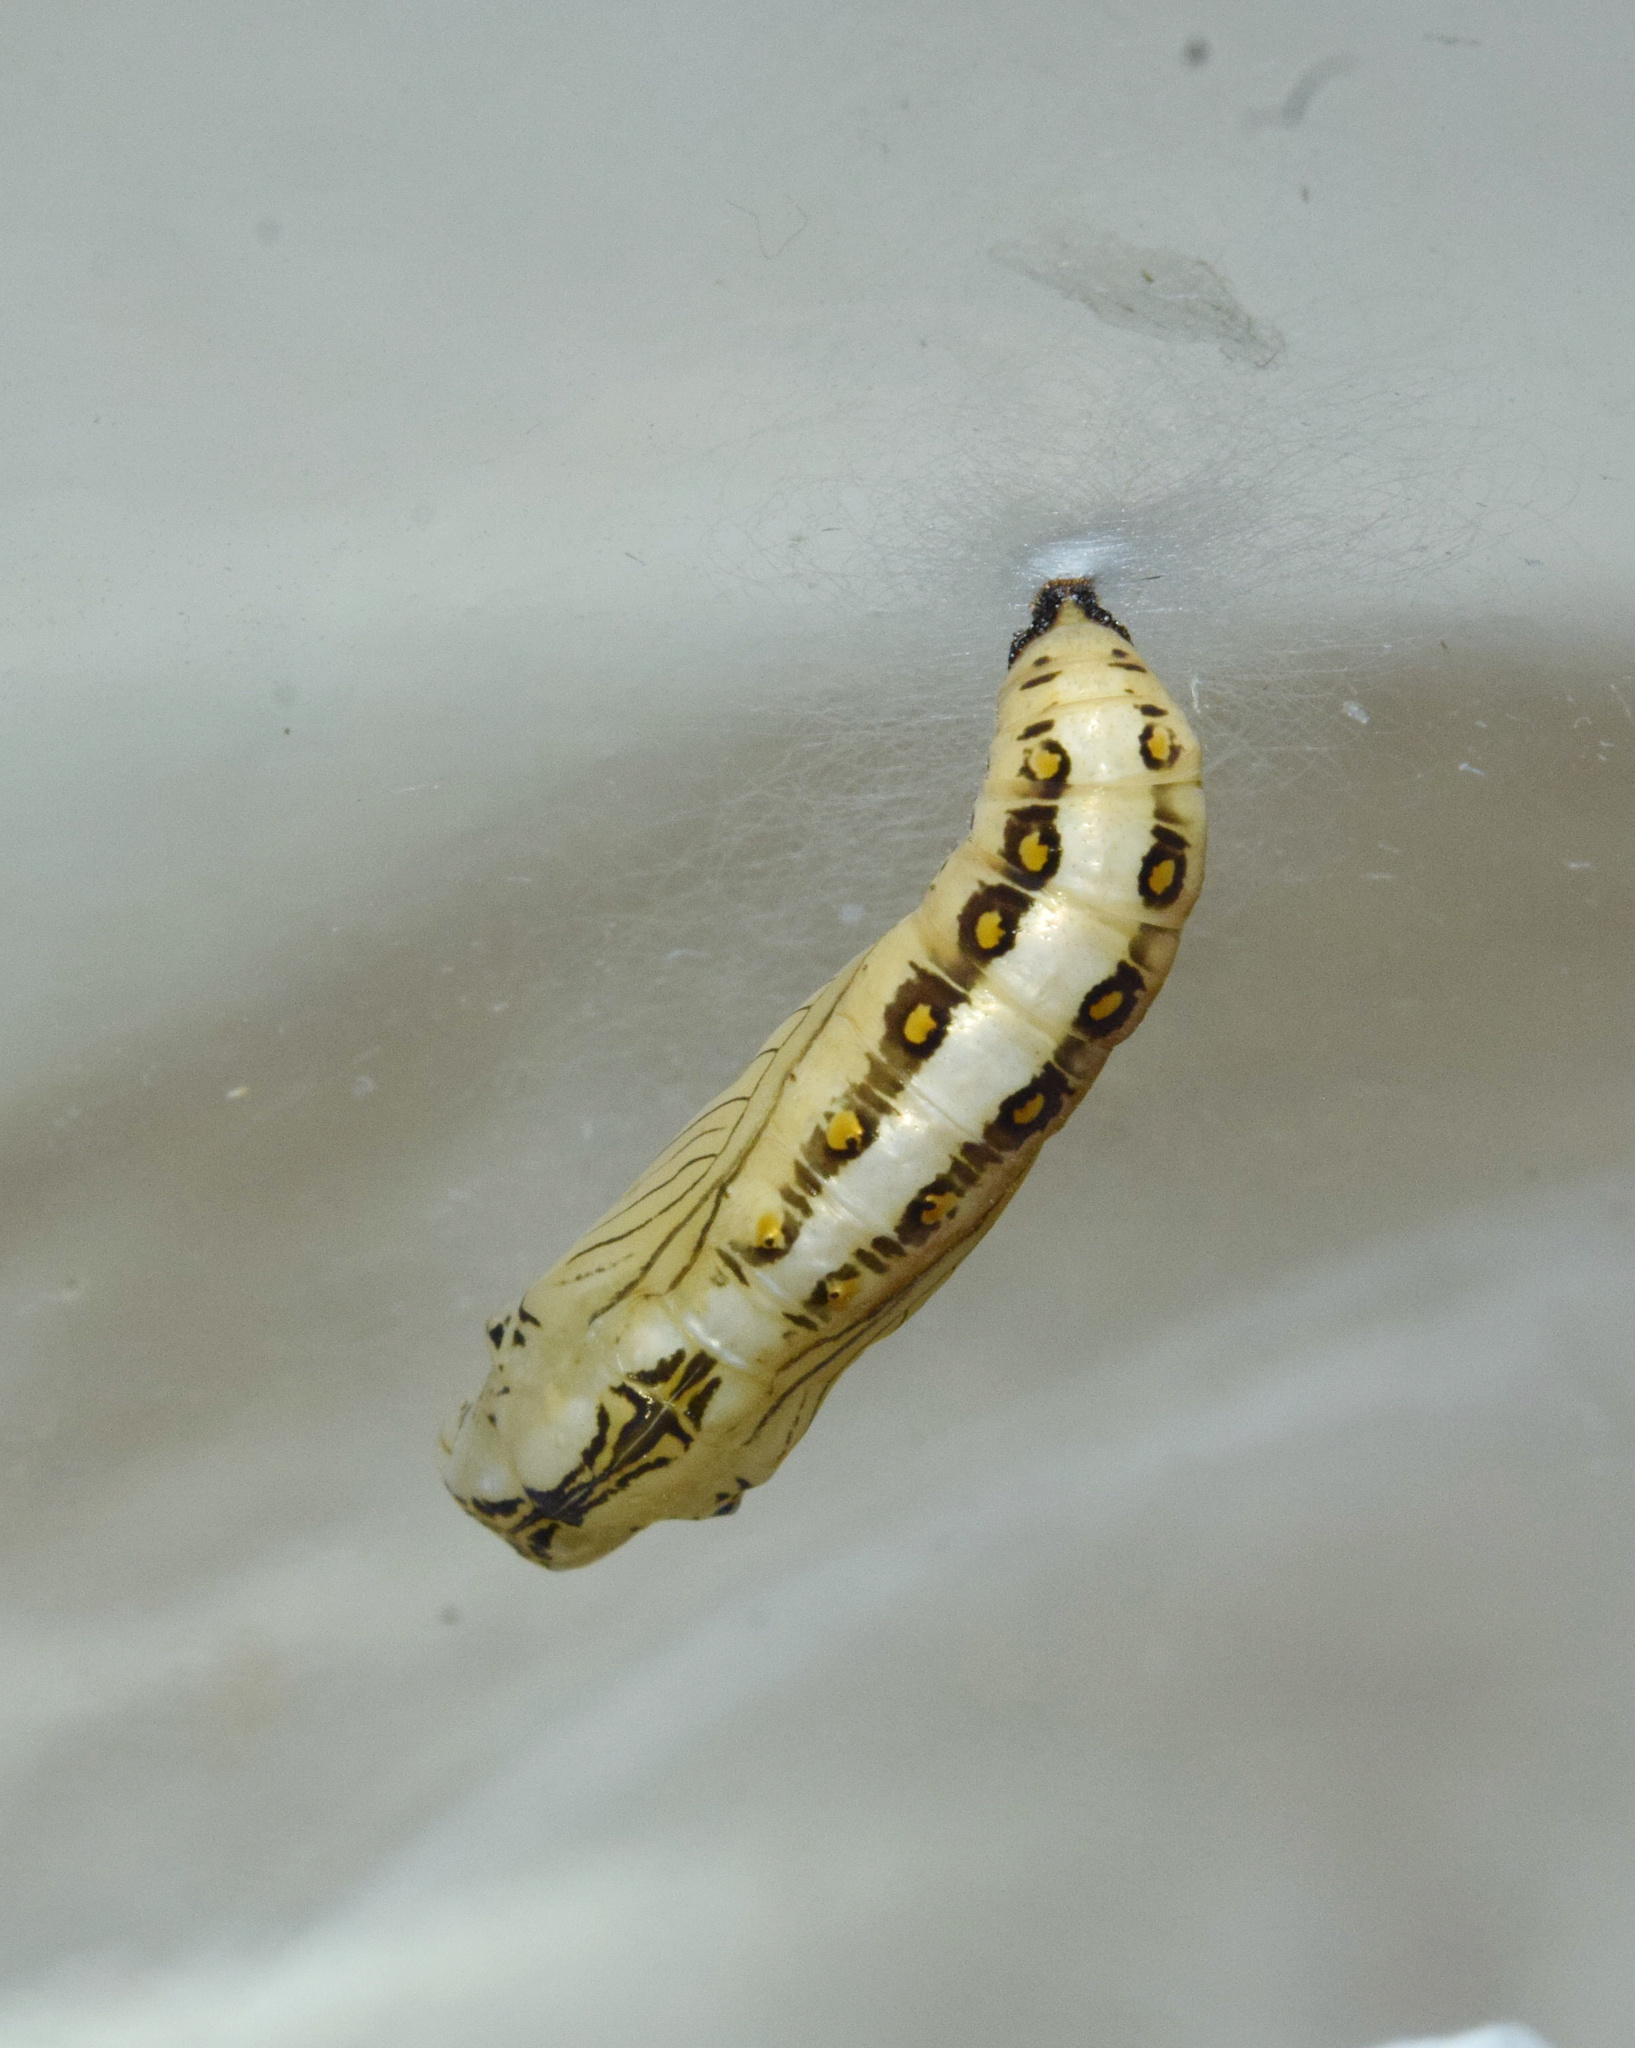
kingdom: Animalia
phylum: Arthropoda
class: Insecta
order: Lepidoptera
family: Nymphalidae
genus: Acraea
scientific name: Acraea cabira
